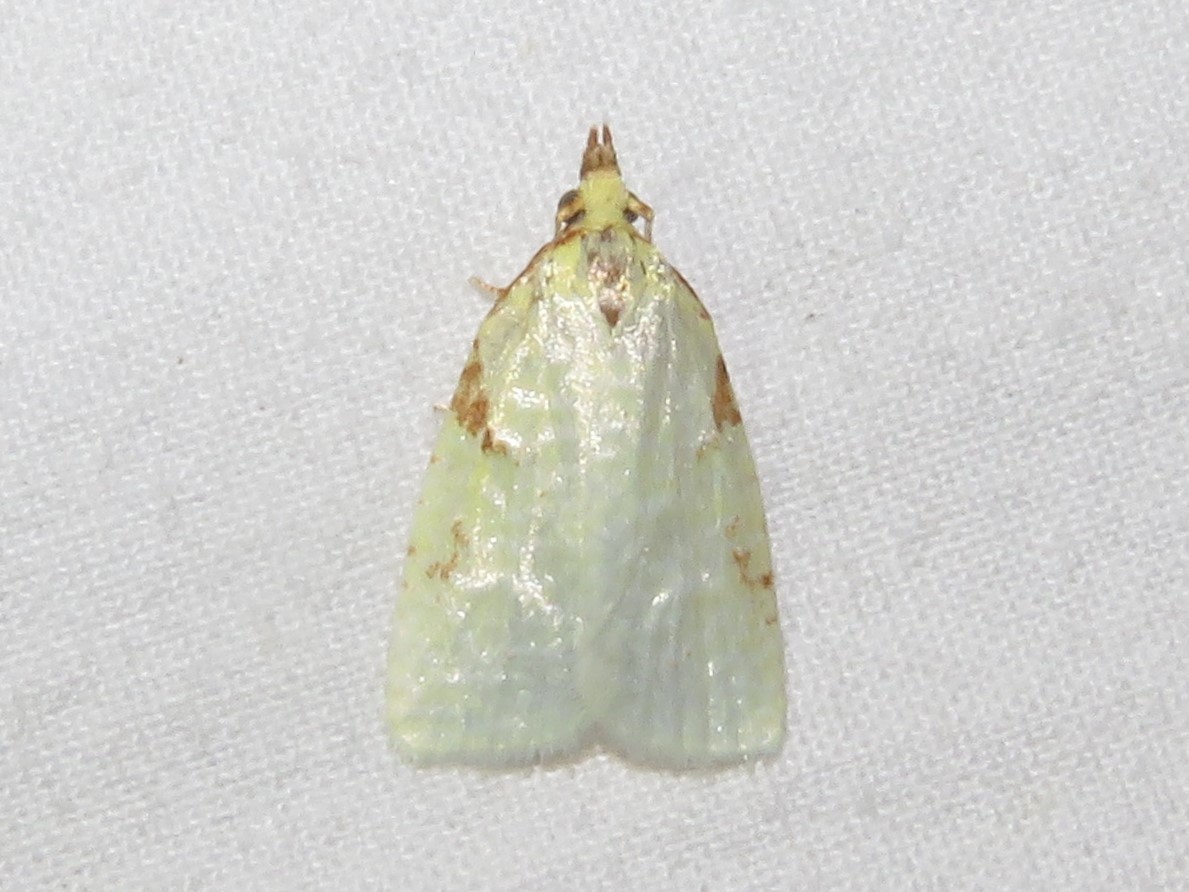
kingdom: Animalia
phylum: Arthropoda
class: Insecta
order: Lepidoptera
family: Tortricidae
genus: Cenopis
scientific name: Cenopis pettitana
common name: Maple-basswood leafroller moth
